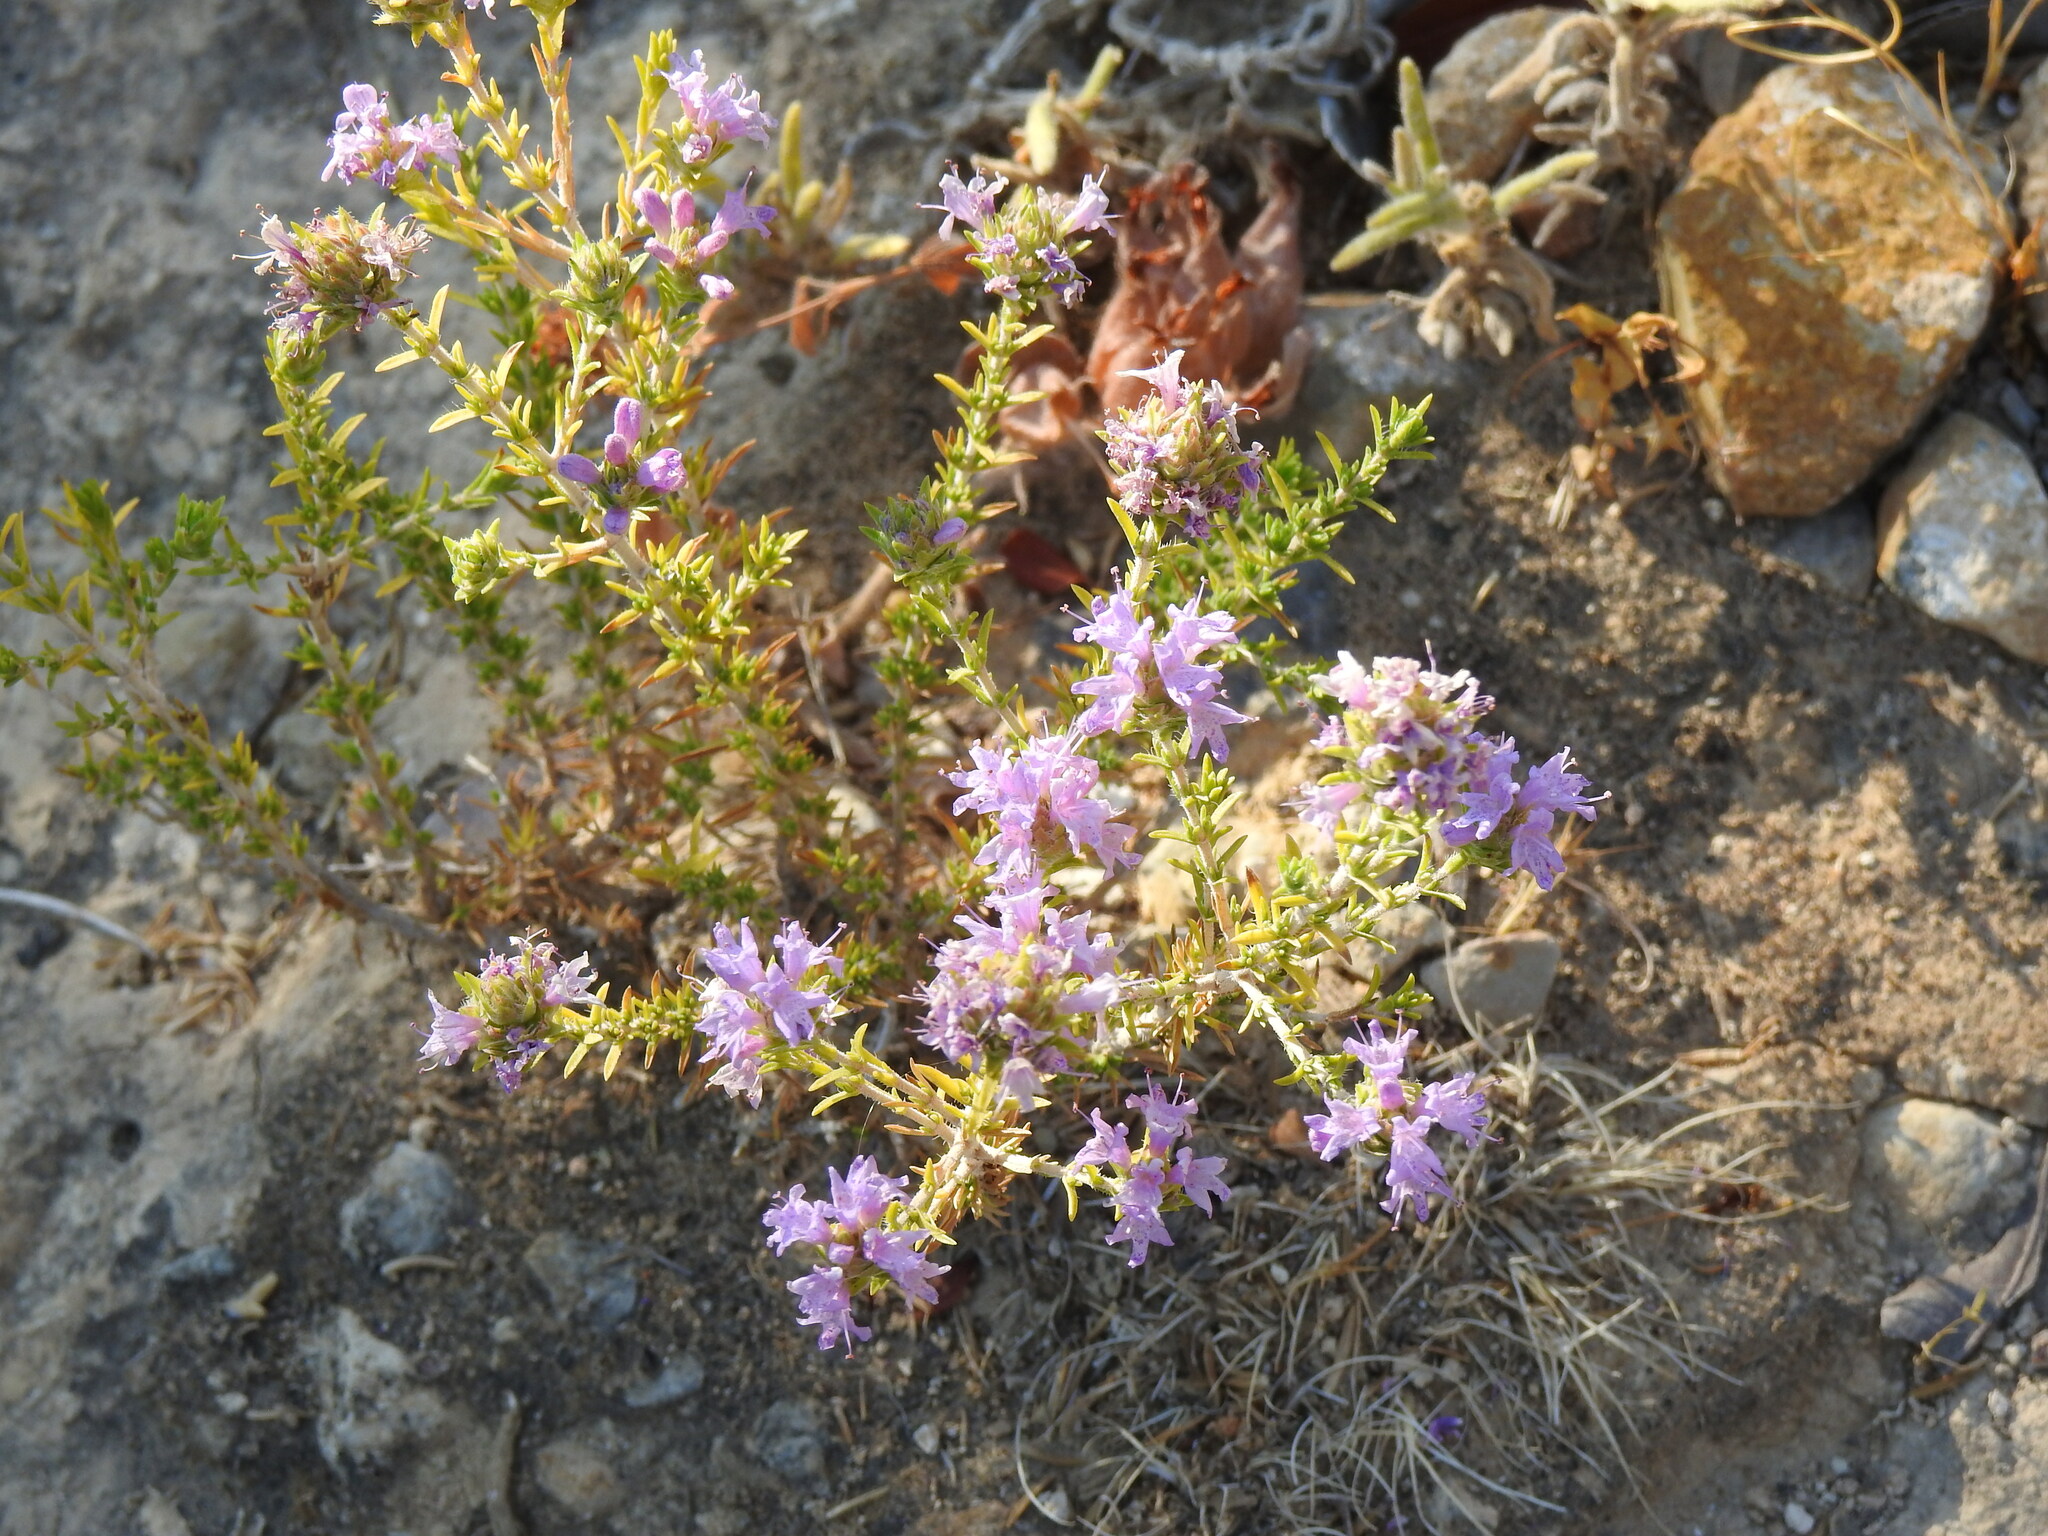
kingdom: Plantae
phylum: Tracheophyta
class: Magnoliopsida
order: Lamiales
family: Lamiaceae
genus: Thymbra
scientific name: Thymbra capitata
